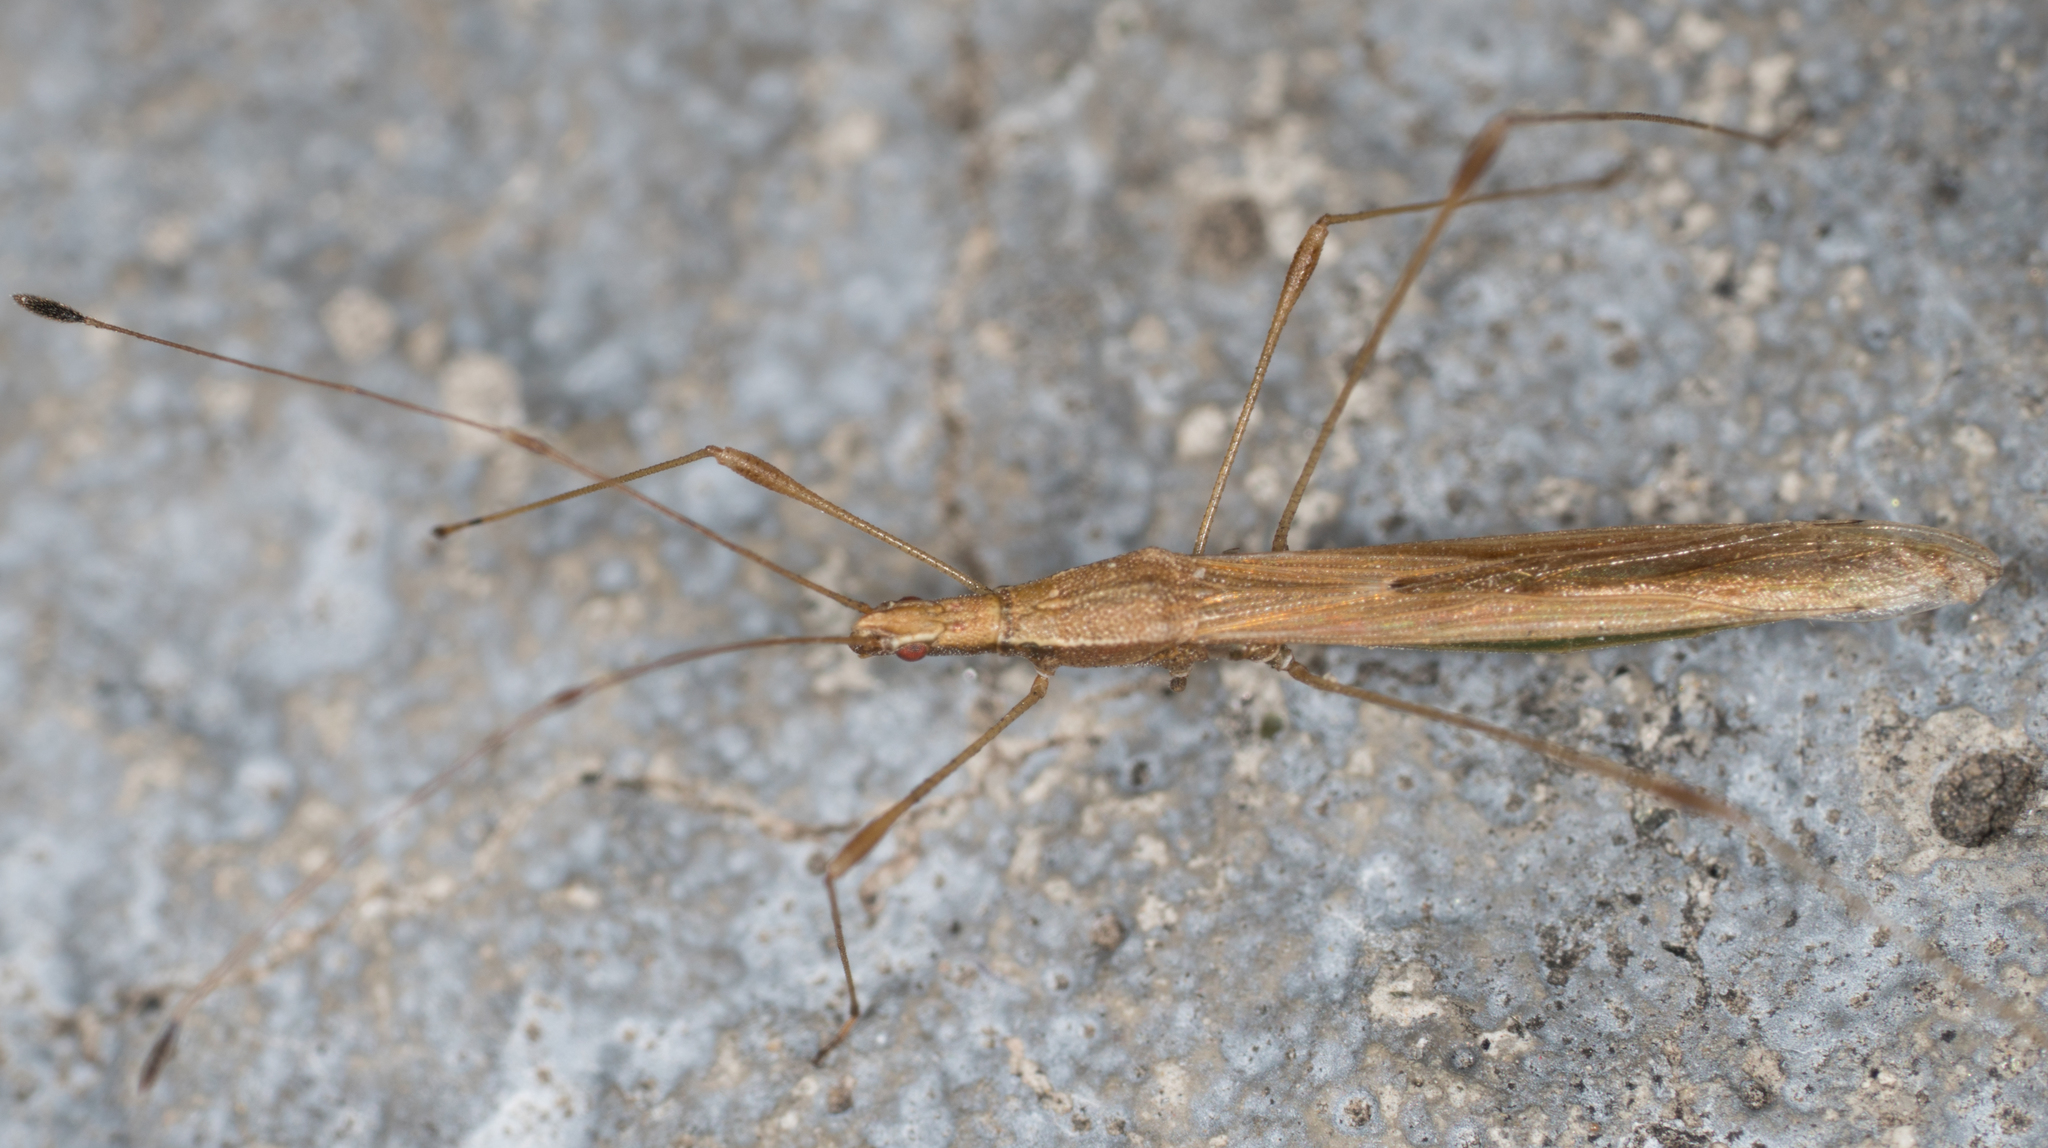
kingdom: Animalia
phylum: Arthropoda
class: Insecta
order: Hemiptera
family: Berytidae
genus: Neoneides
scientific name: Neoneides muticus
